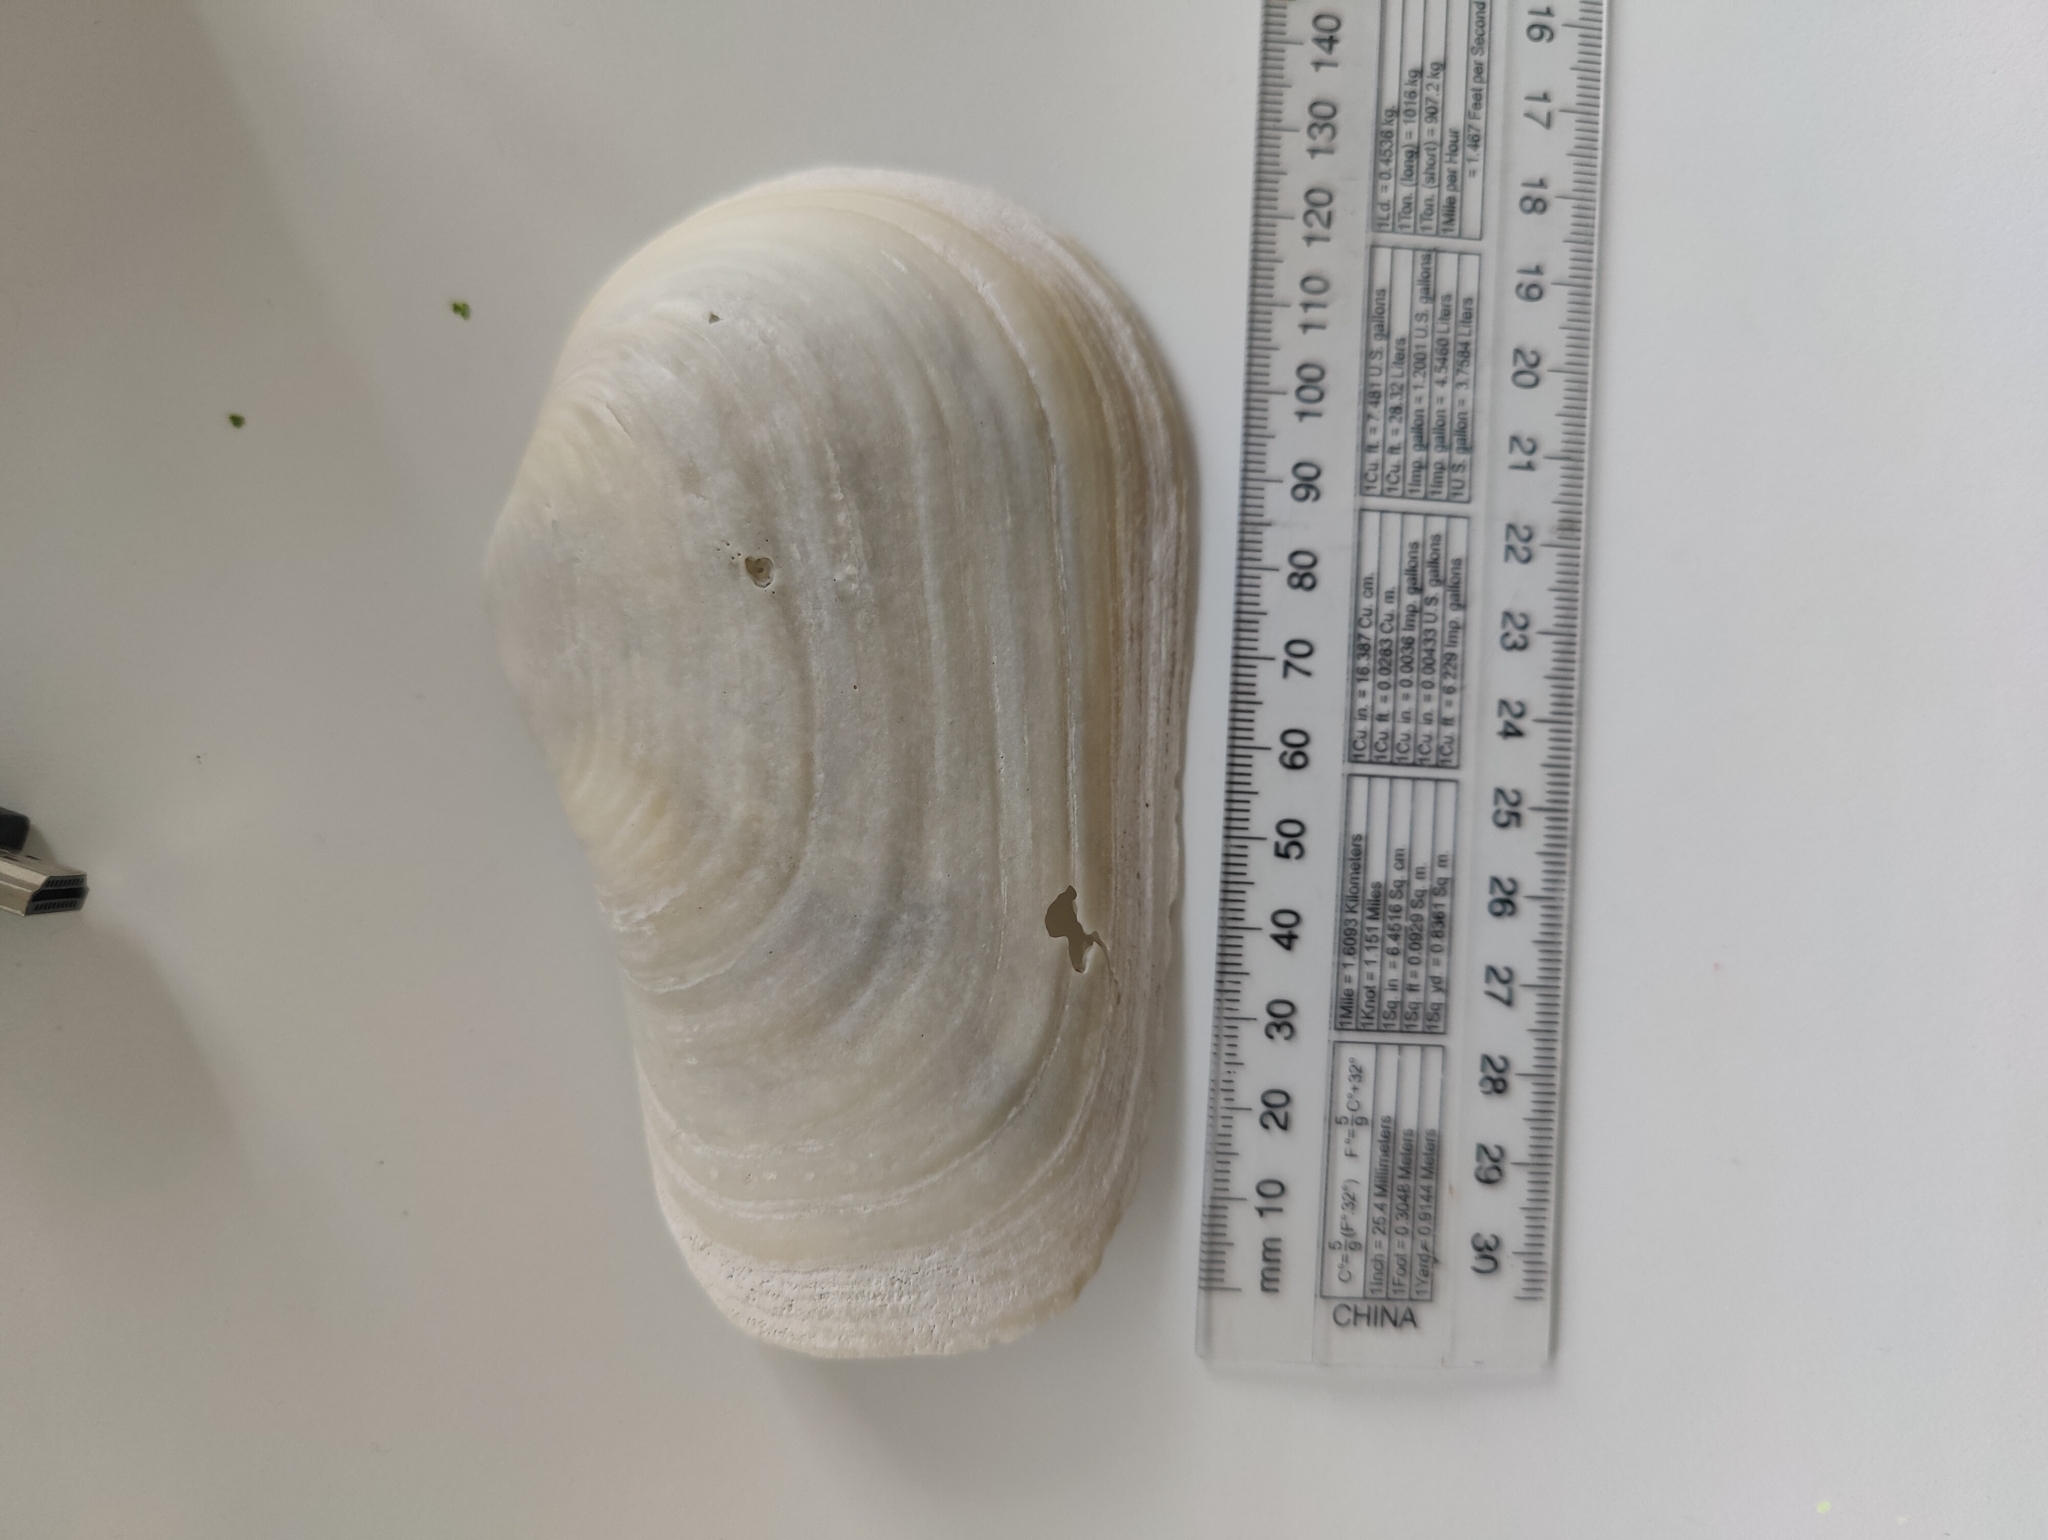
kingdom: Animalia
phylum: Mollusca
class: Bivalvia
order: Adapedonta
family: Hiatellidae
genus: Panopea
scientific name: Panopea zelandica
